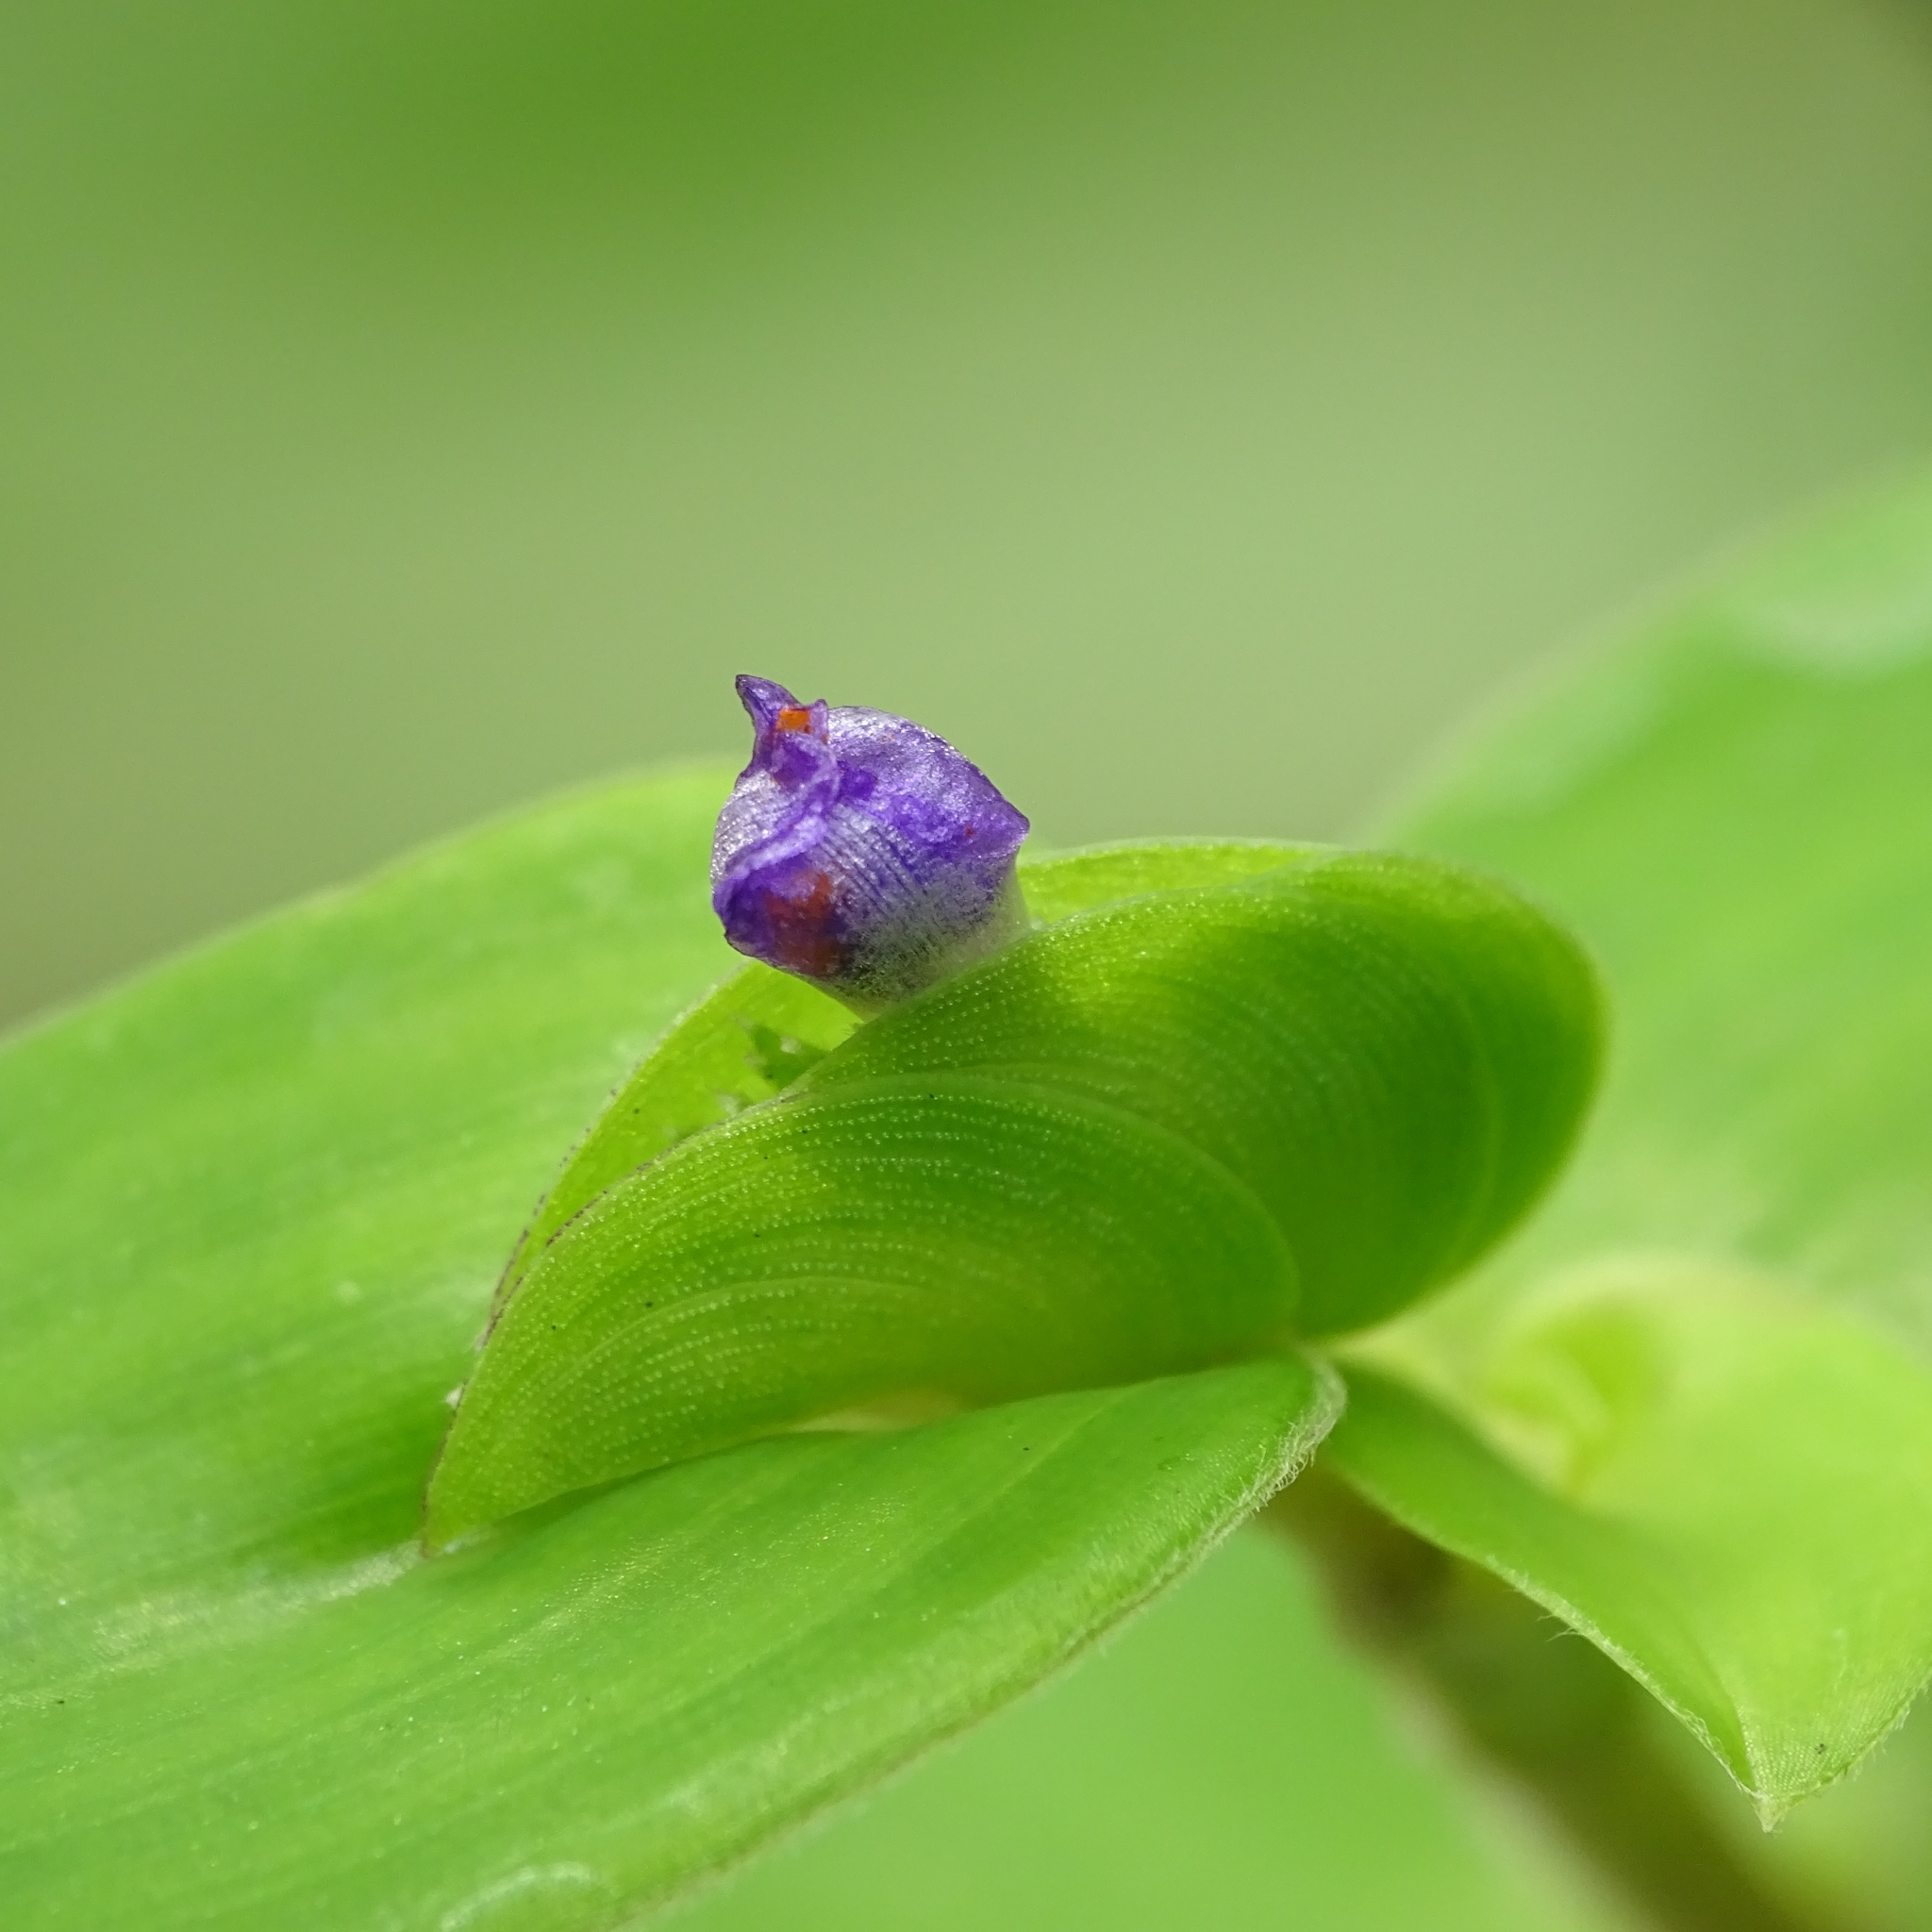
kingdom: Plantae
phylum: Tracheophyta
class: Liliopsida
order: Commelinales
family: Commelinaceae
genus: Cyanotis
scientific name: Cyanotis cristata
